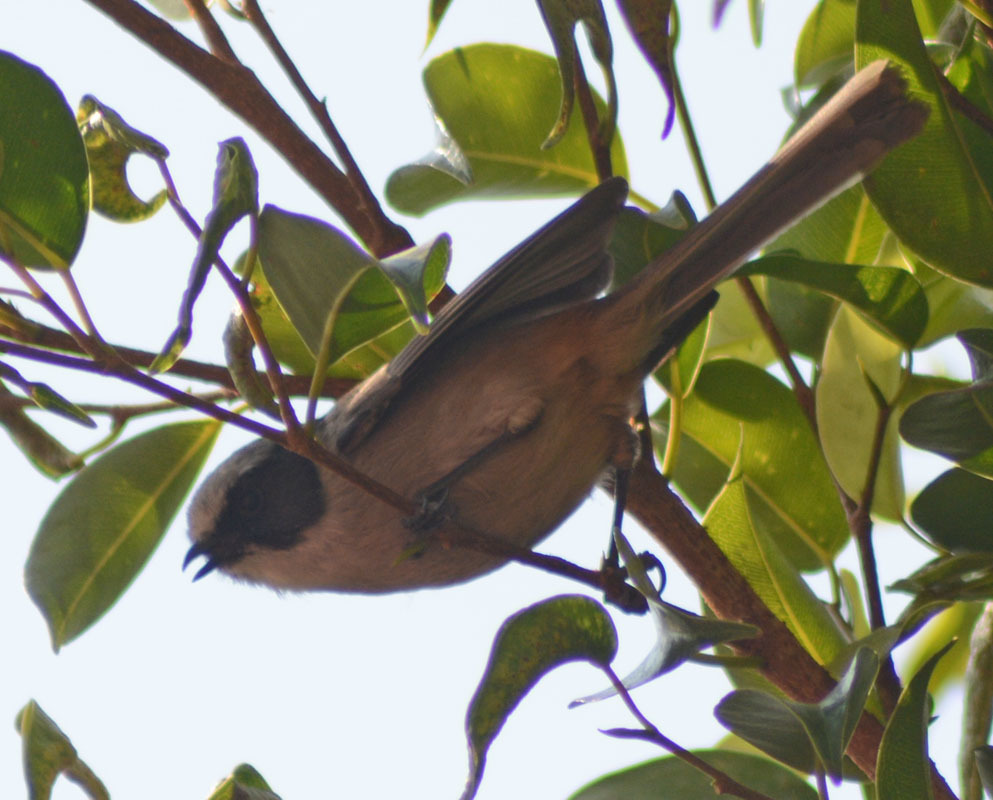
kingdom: Animalia
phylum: Chordata
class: Aves
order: Passeriformes
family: Aegithalidae
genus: Psaltriparus
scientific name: Psaltriparus minimus
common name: American bushtit
